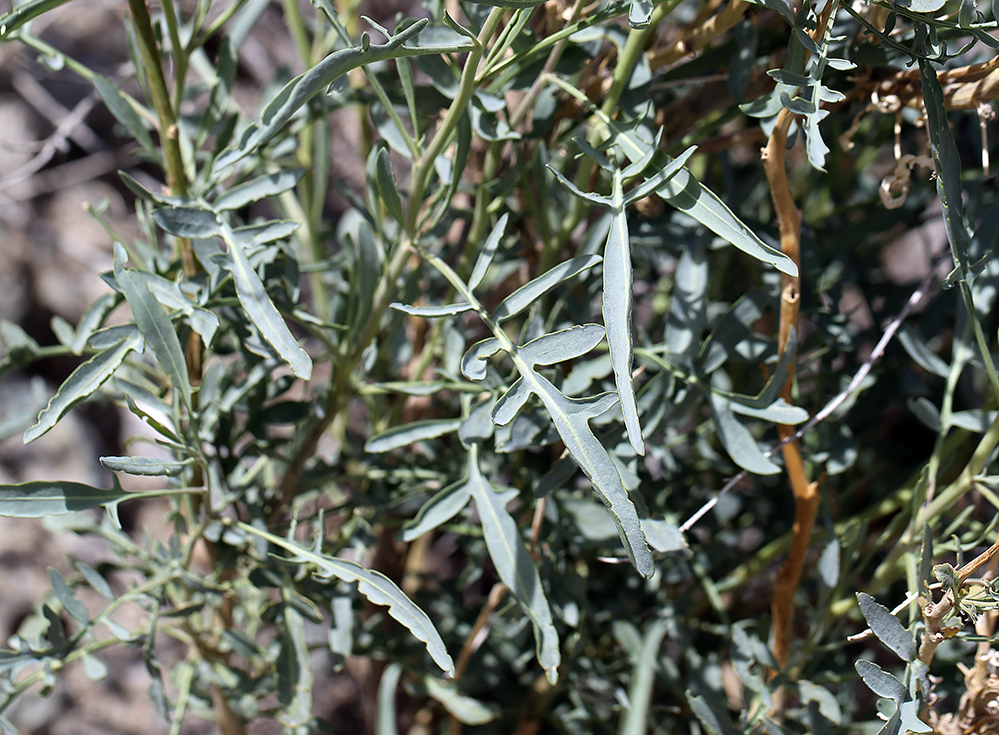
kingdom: Plantae
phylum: Tracheophyta
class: Magnoliopsida
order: Brassicales
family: Brassicaceae
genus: Stanleya
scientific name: Stanleya pinnata
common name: Prince's-plume
